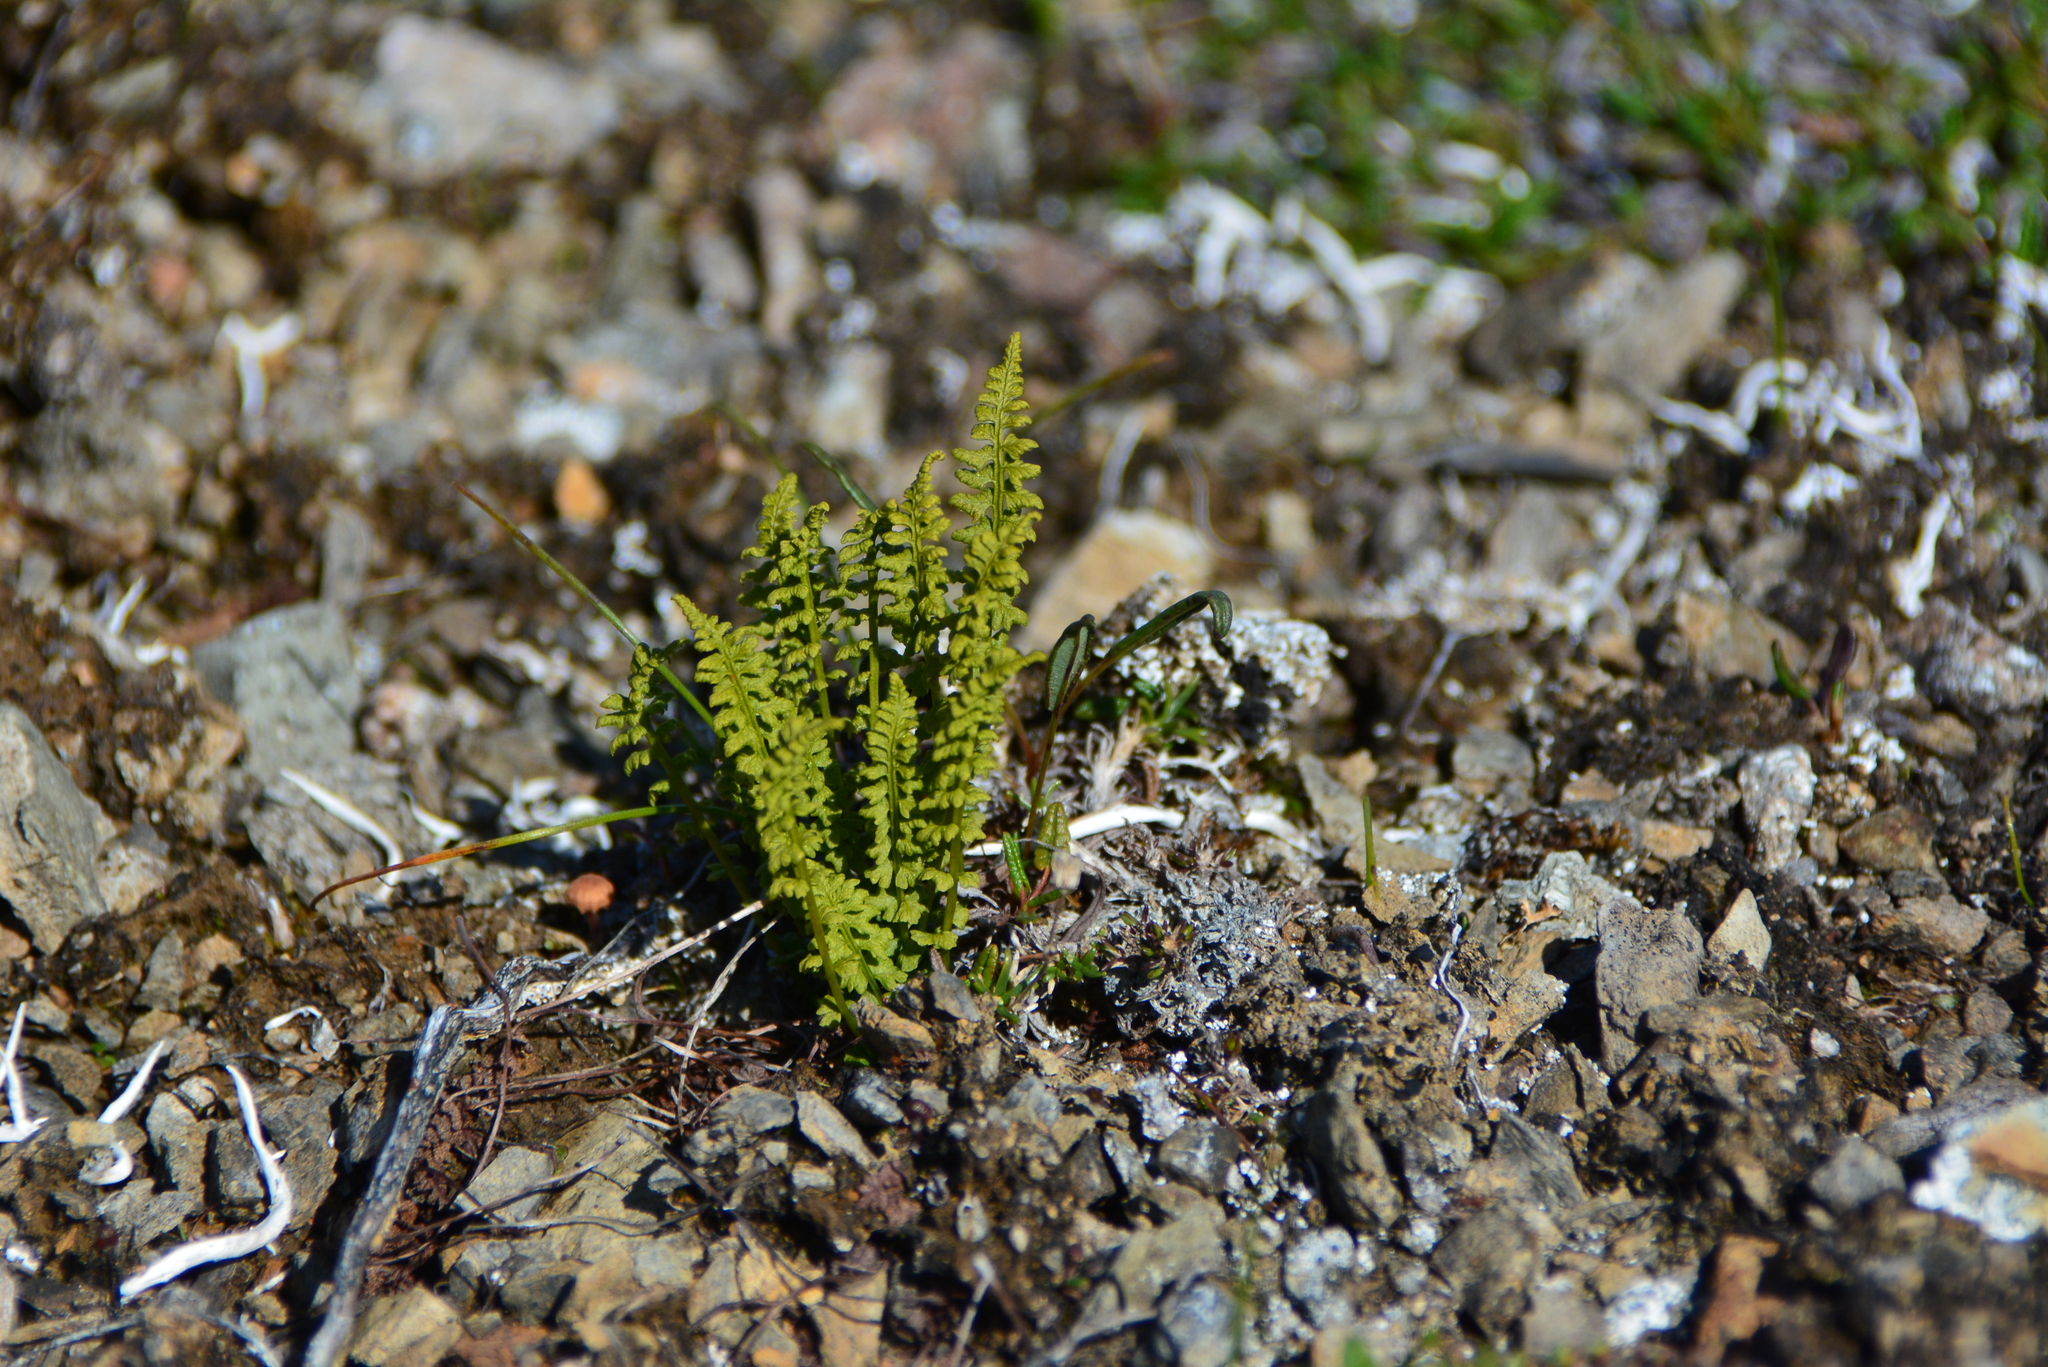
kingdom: Plantae
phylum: Tracheophyta
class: Polypodiopsida
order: Polypodiales
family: Woodsiaceae
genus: Woodsia
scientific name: Woodsia glabella
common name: Smooth woodsia
